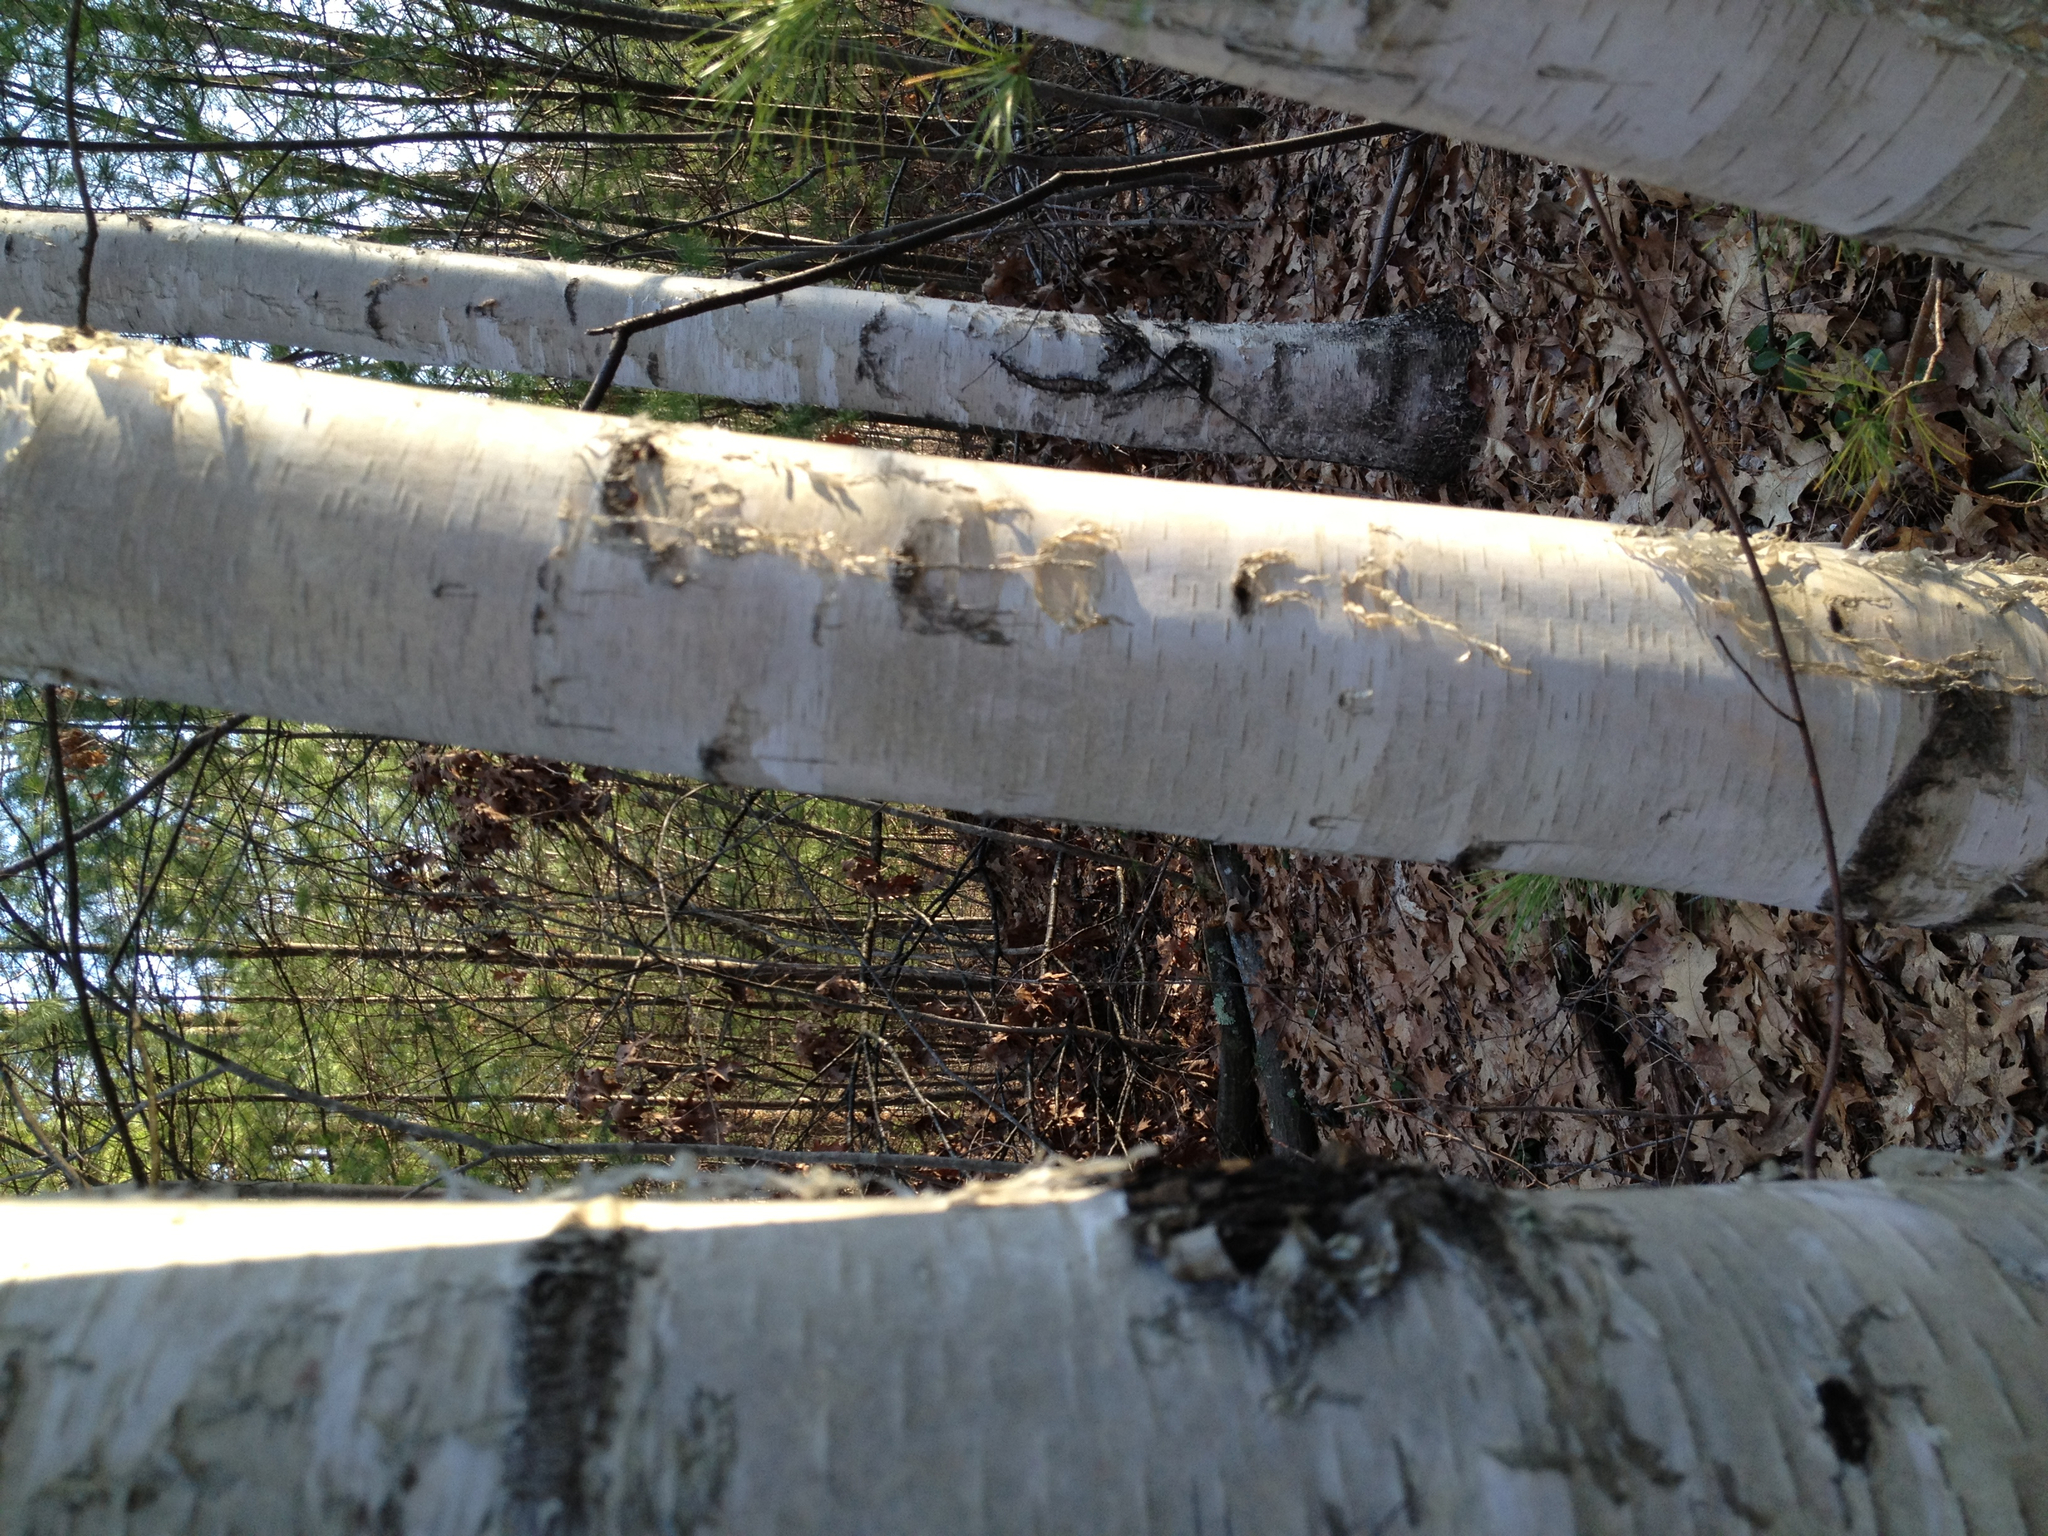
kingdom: Plantae
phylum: Tracheophyta
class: Magnoliopsida
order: Fagales
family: Betulaceae
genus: Betula
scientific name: Betula papyrifera
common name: Paper birch
